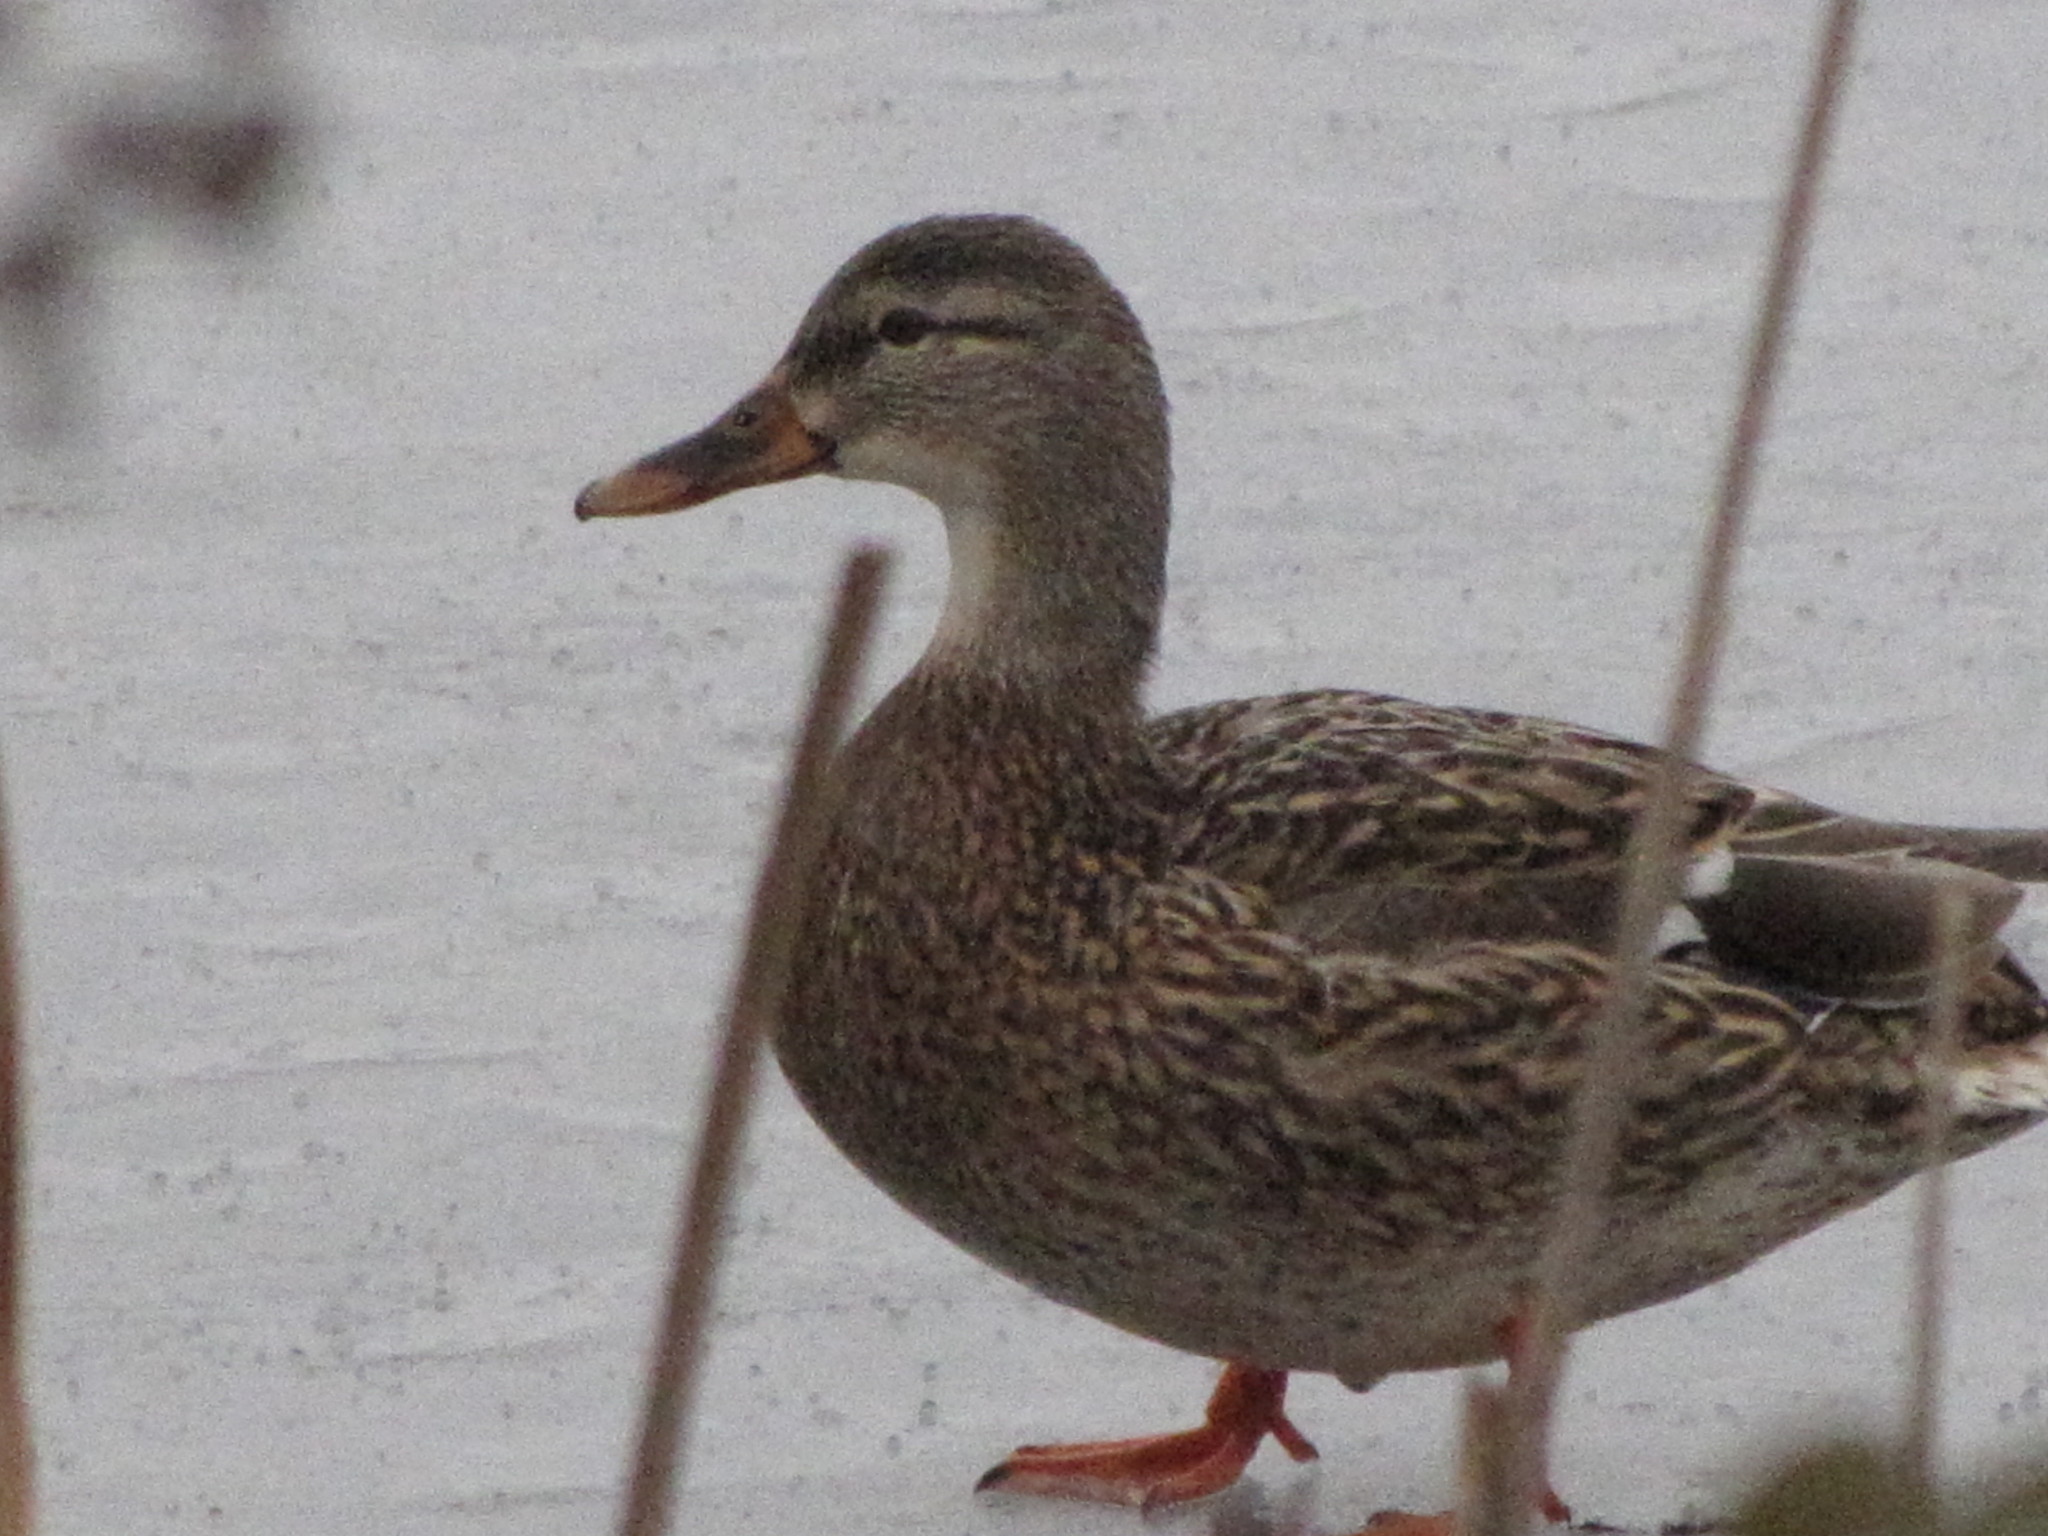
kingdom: Animalia
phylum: Chordata
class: Aves
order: Anseriformes
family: Anatidae
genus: Anas
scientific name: Anas platyrhynchos
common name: Mallard
